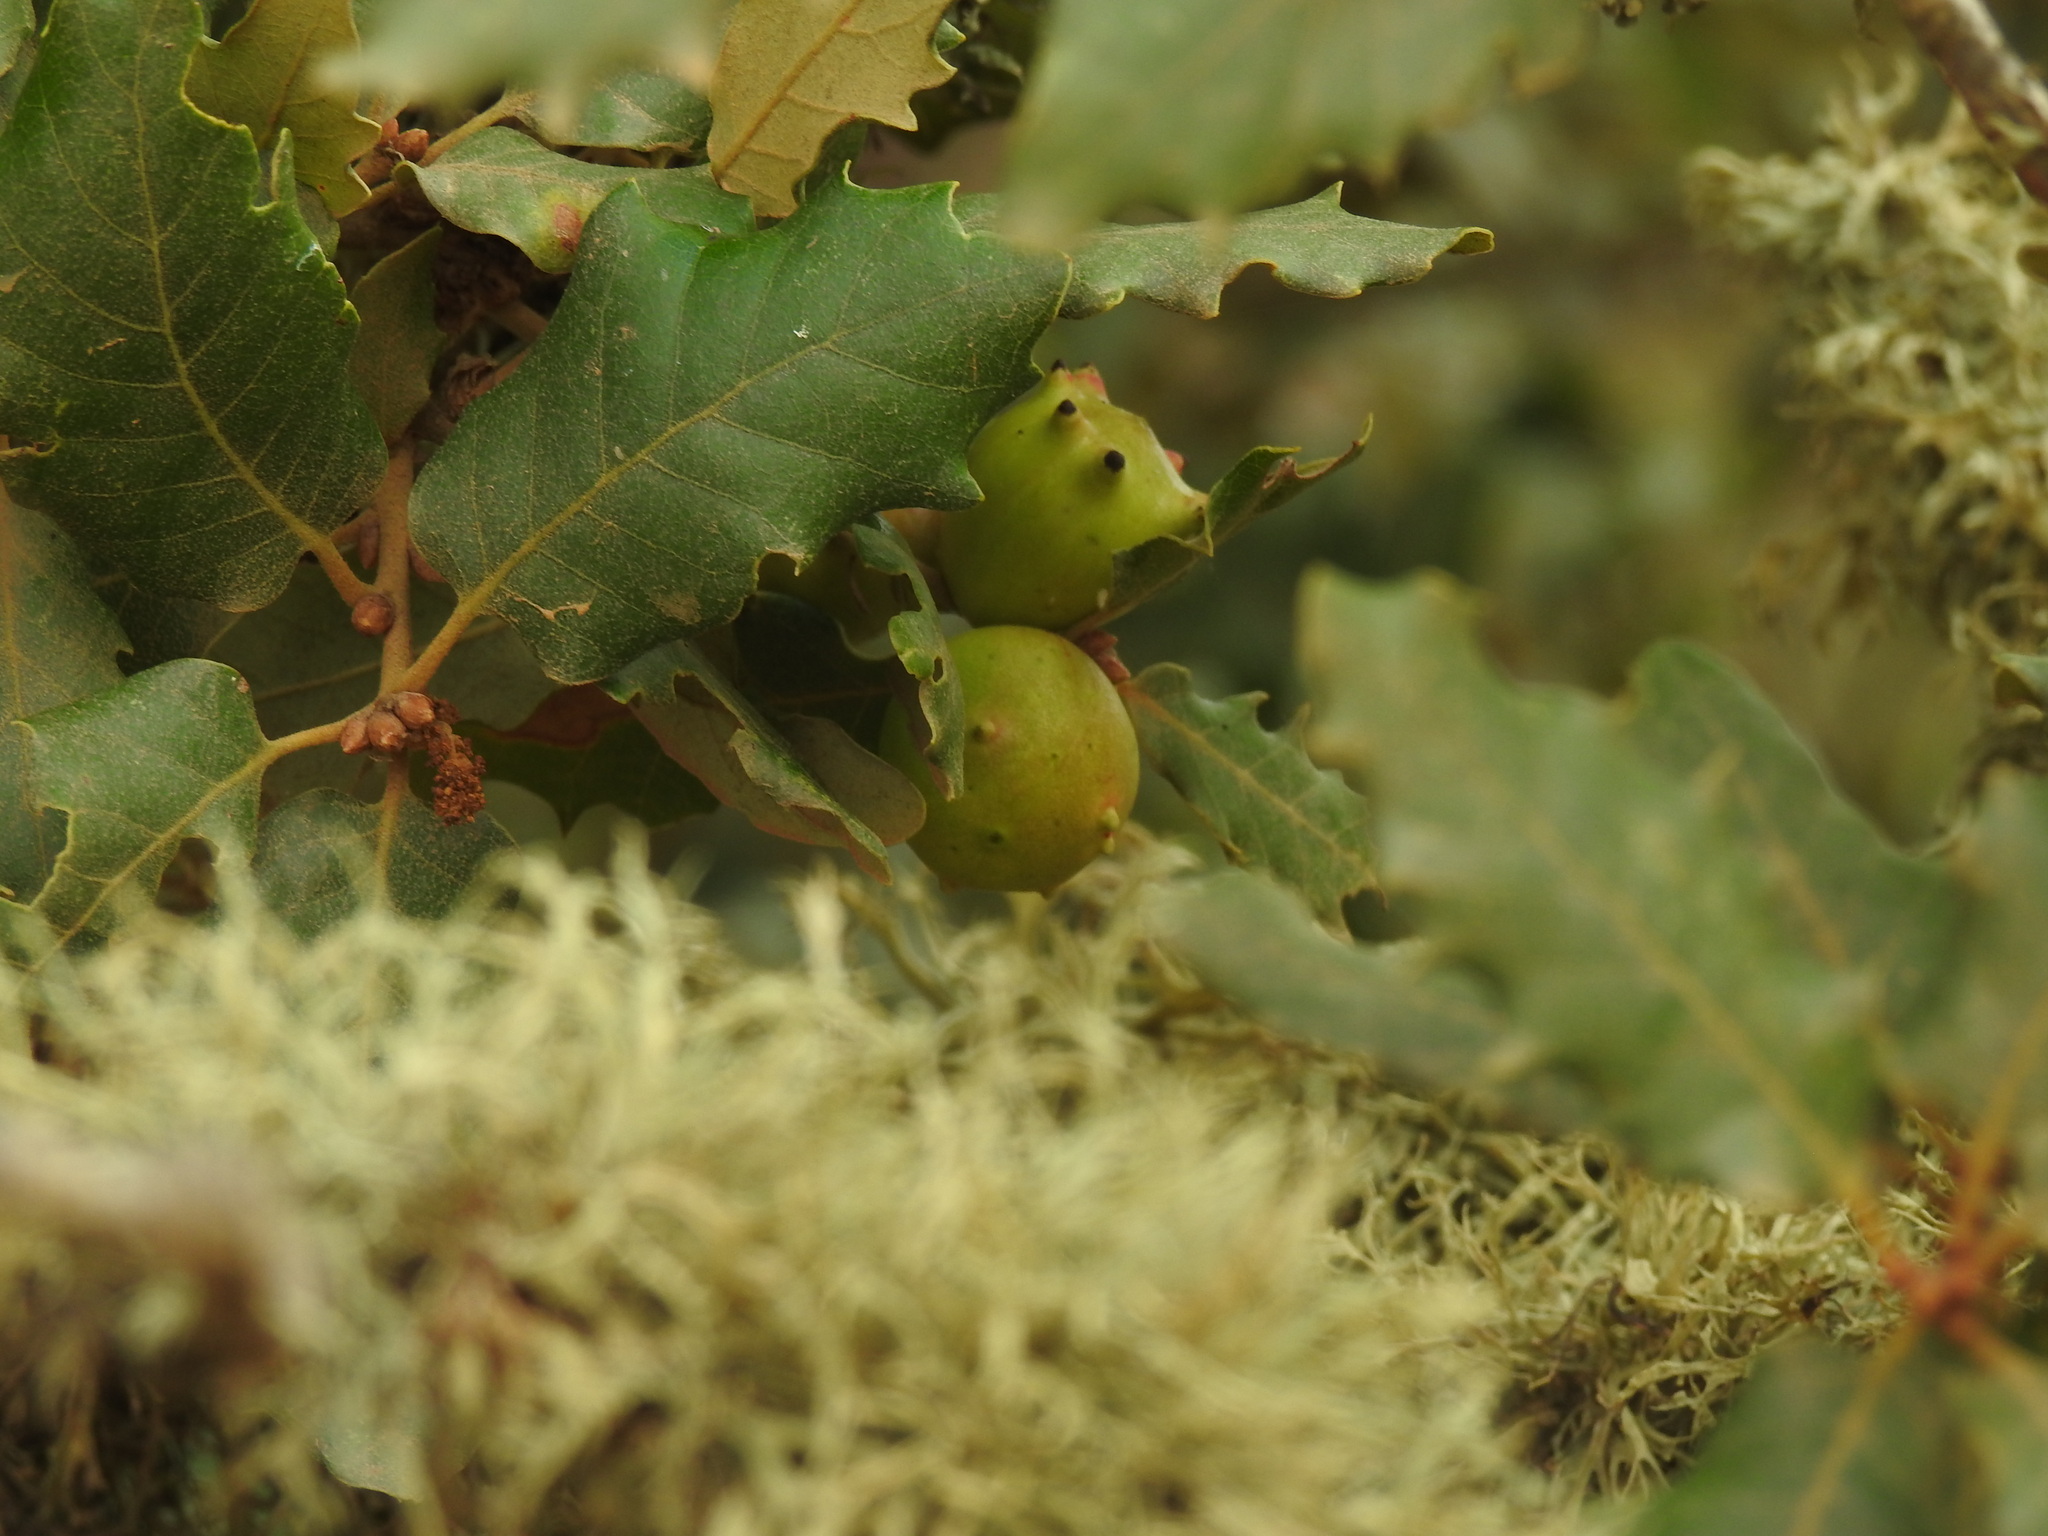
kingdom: Animalia
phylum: Arthropoda
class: Insecta
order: Hymenoptera
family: Cynipidae
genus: Andricus
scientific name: Andricus quercustozae
